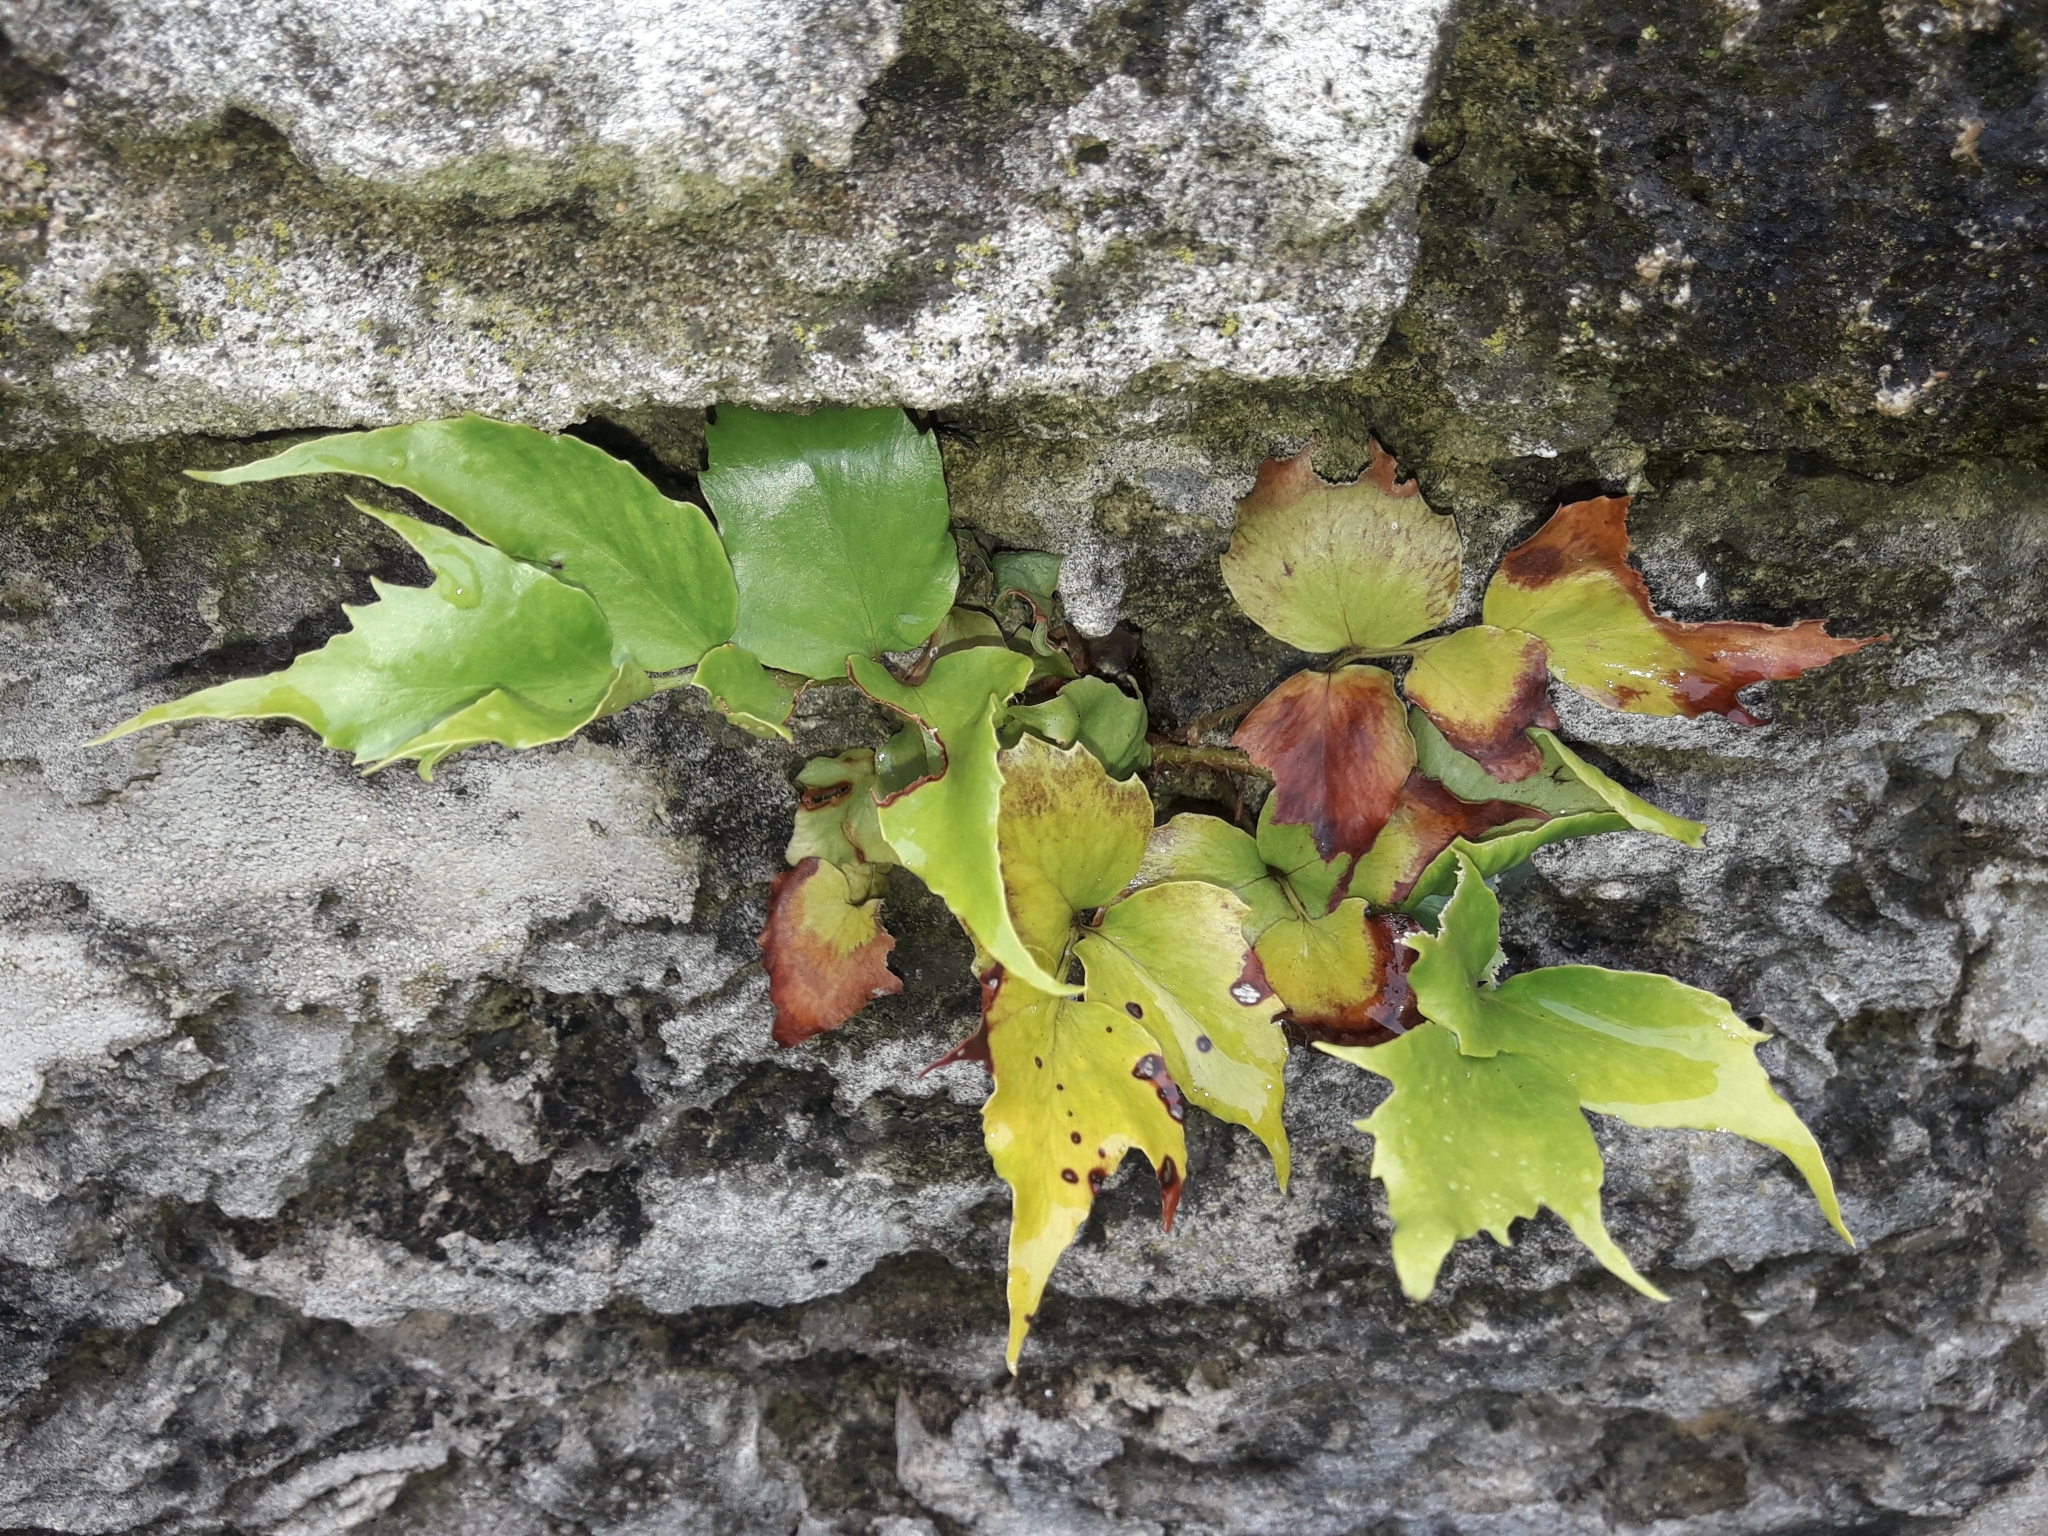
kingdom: Plantae
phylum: Tracheophyta
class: Polypodiopsida
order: Polypodiales
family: Dryopteridaceae
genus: Cyrtomium
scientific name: Cyrtomium falcatum
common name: House holly-fern
